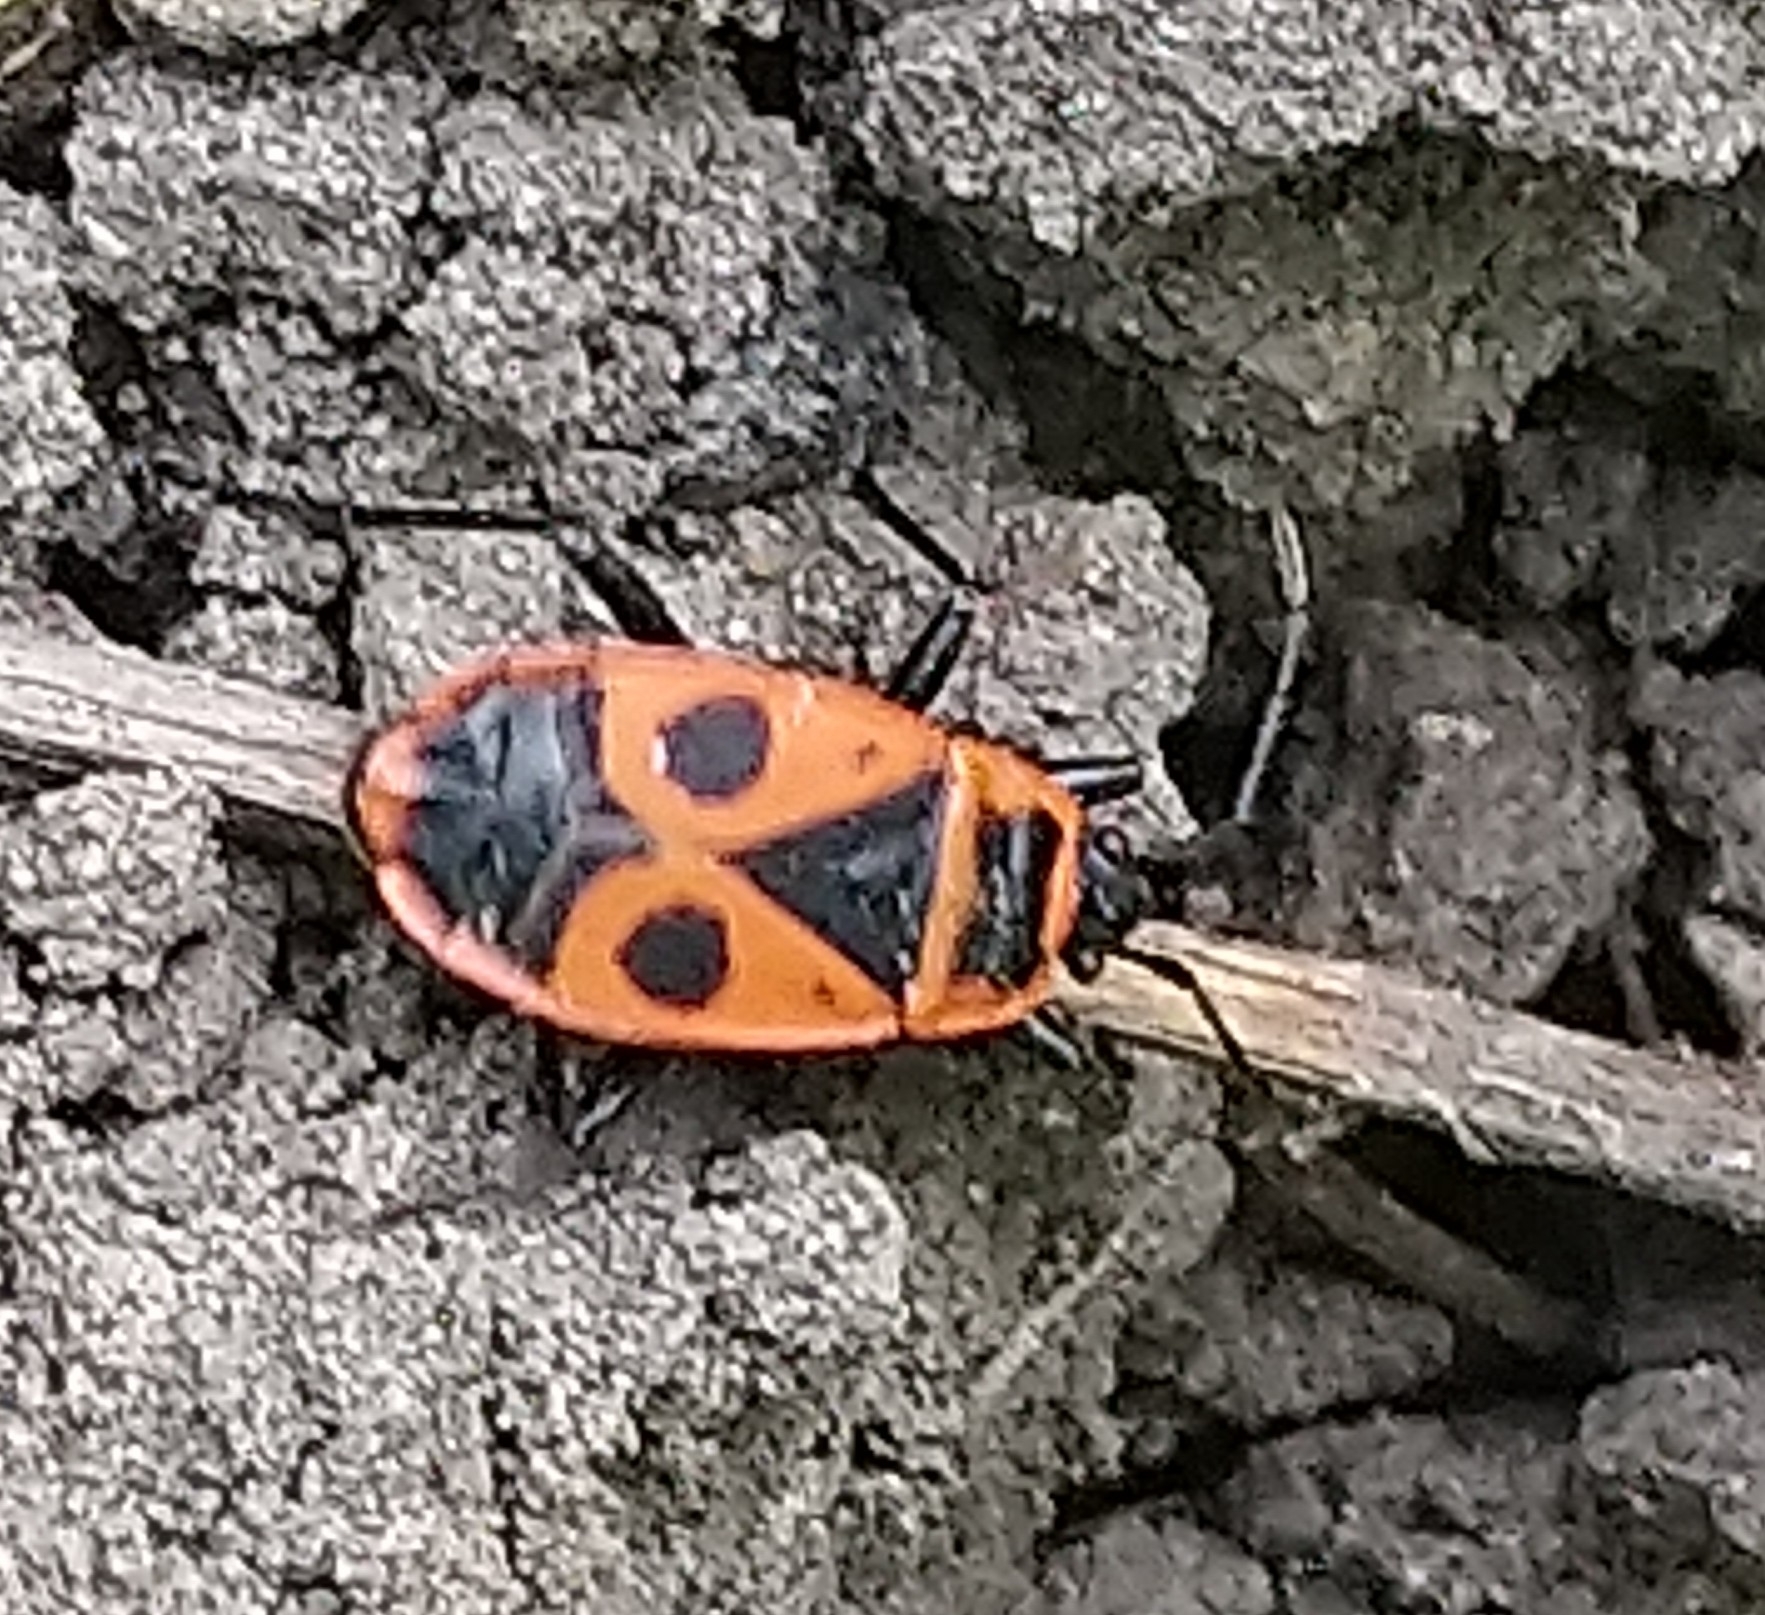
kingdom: Animalia
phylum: Arthropoda
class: Insecta
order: Hemiptera
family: Pyrrhocoridae
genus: Pyrrhocoris
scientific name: Pyrrhocoris apterus
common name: Firebug
